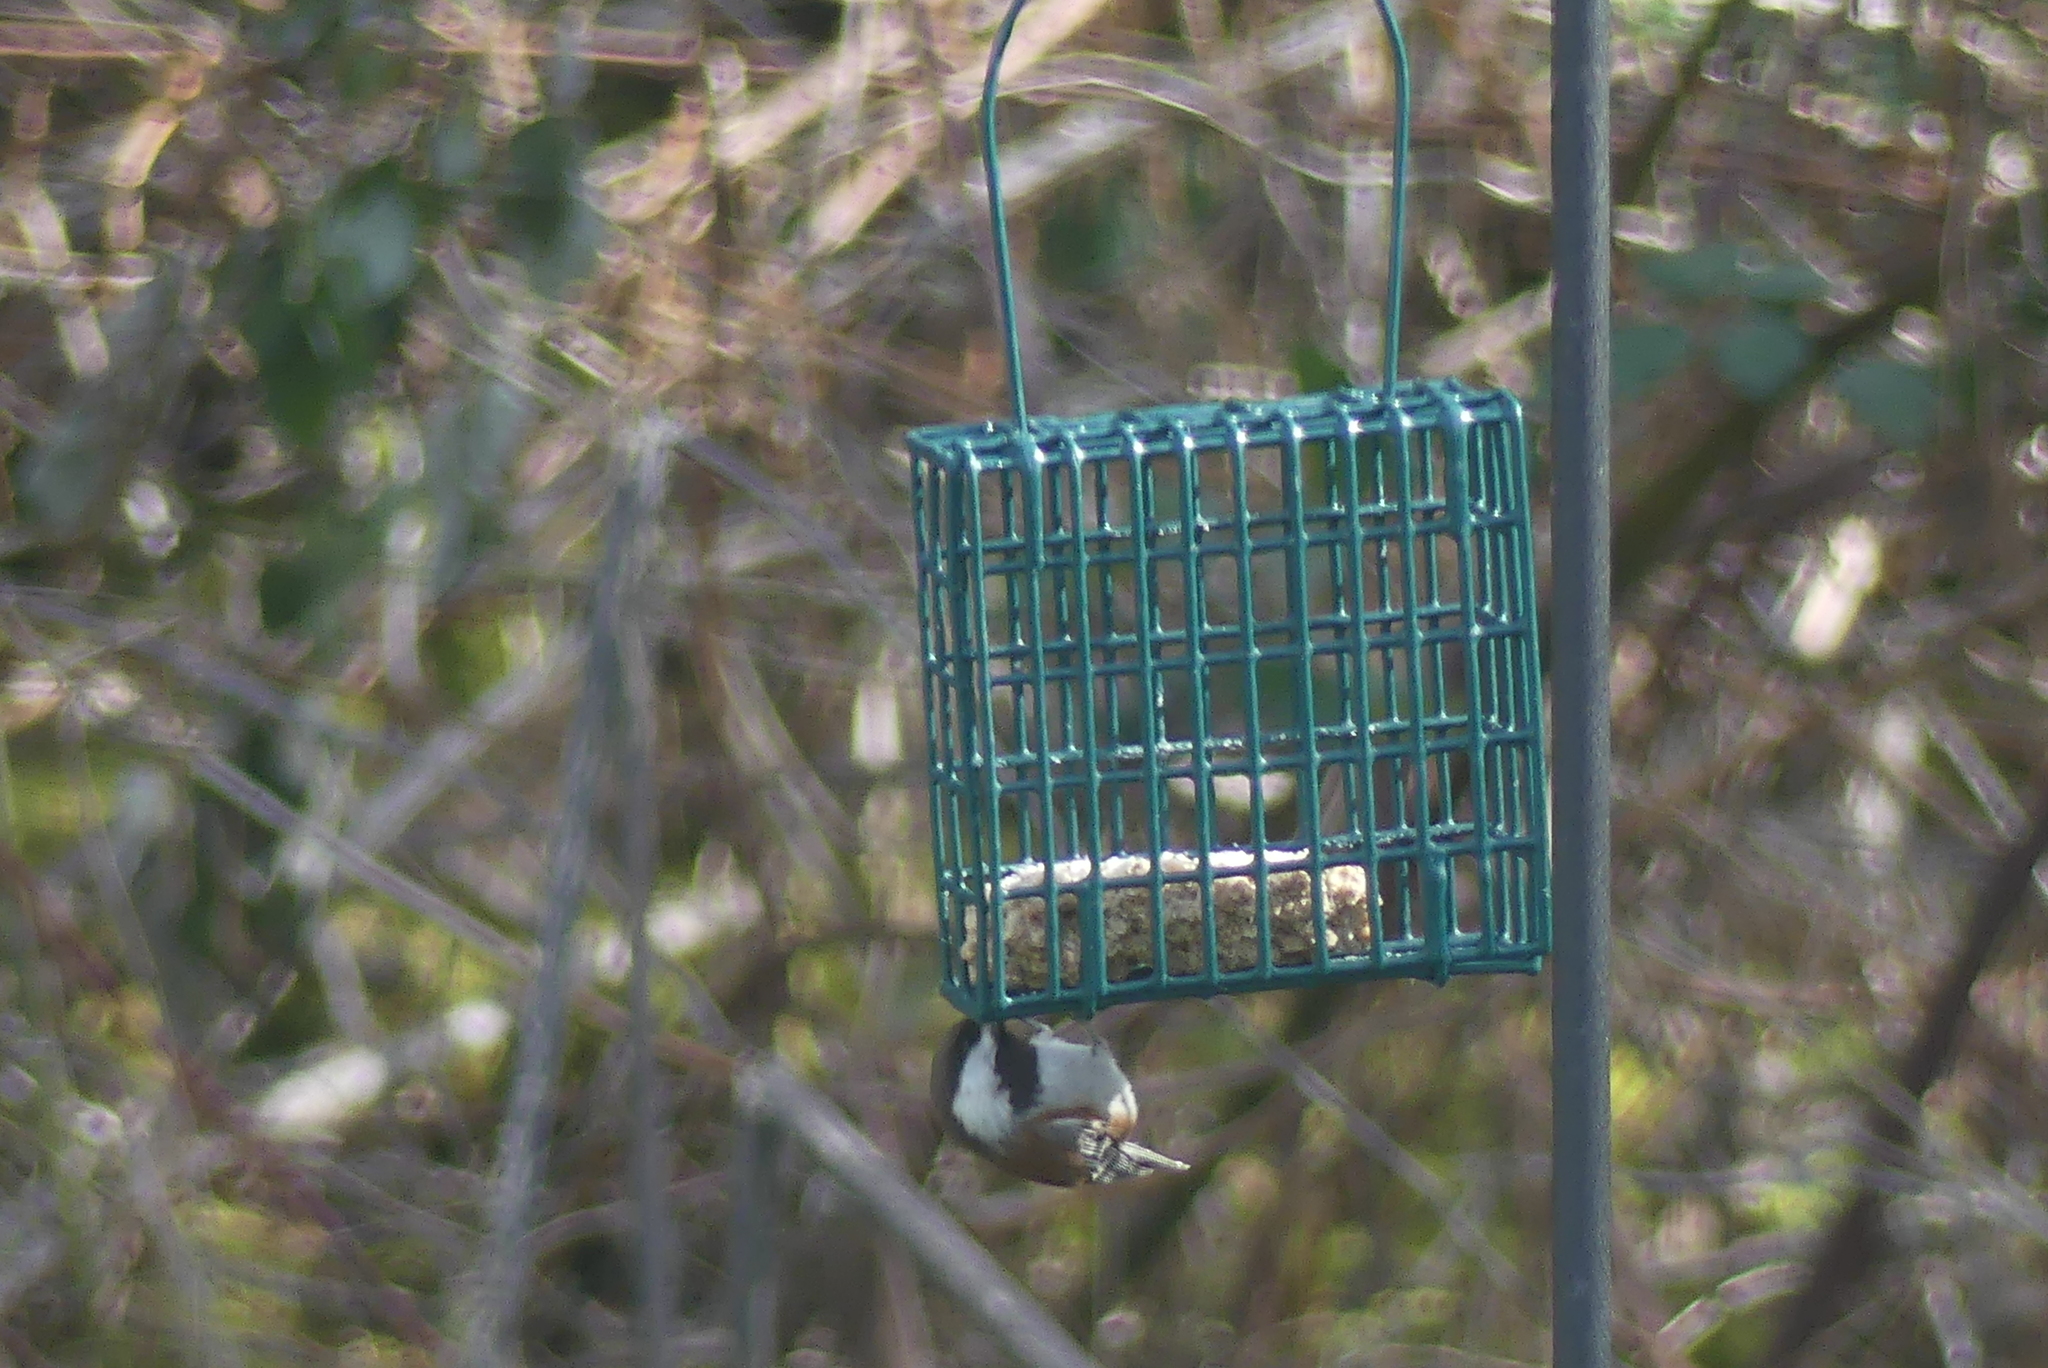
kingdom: Animalia
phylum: Chordata
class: Aves
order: Passeriformes
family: Paridae
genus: Poecile
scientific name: Poecile rufescens
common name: Chestnut-backed chickadee
